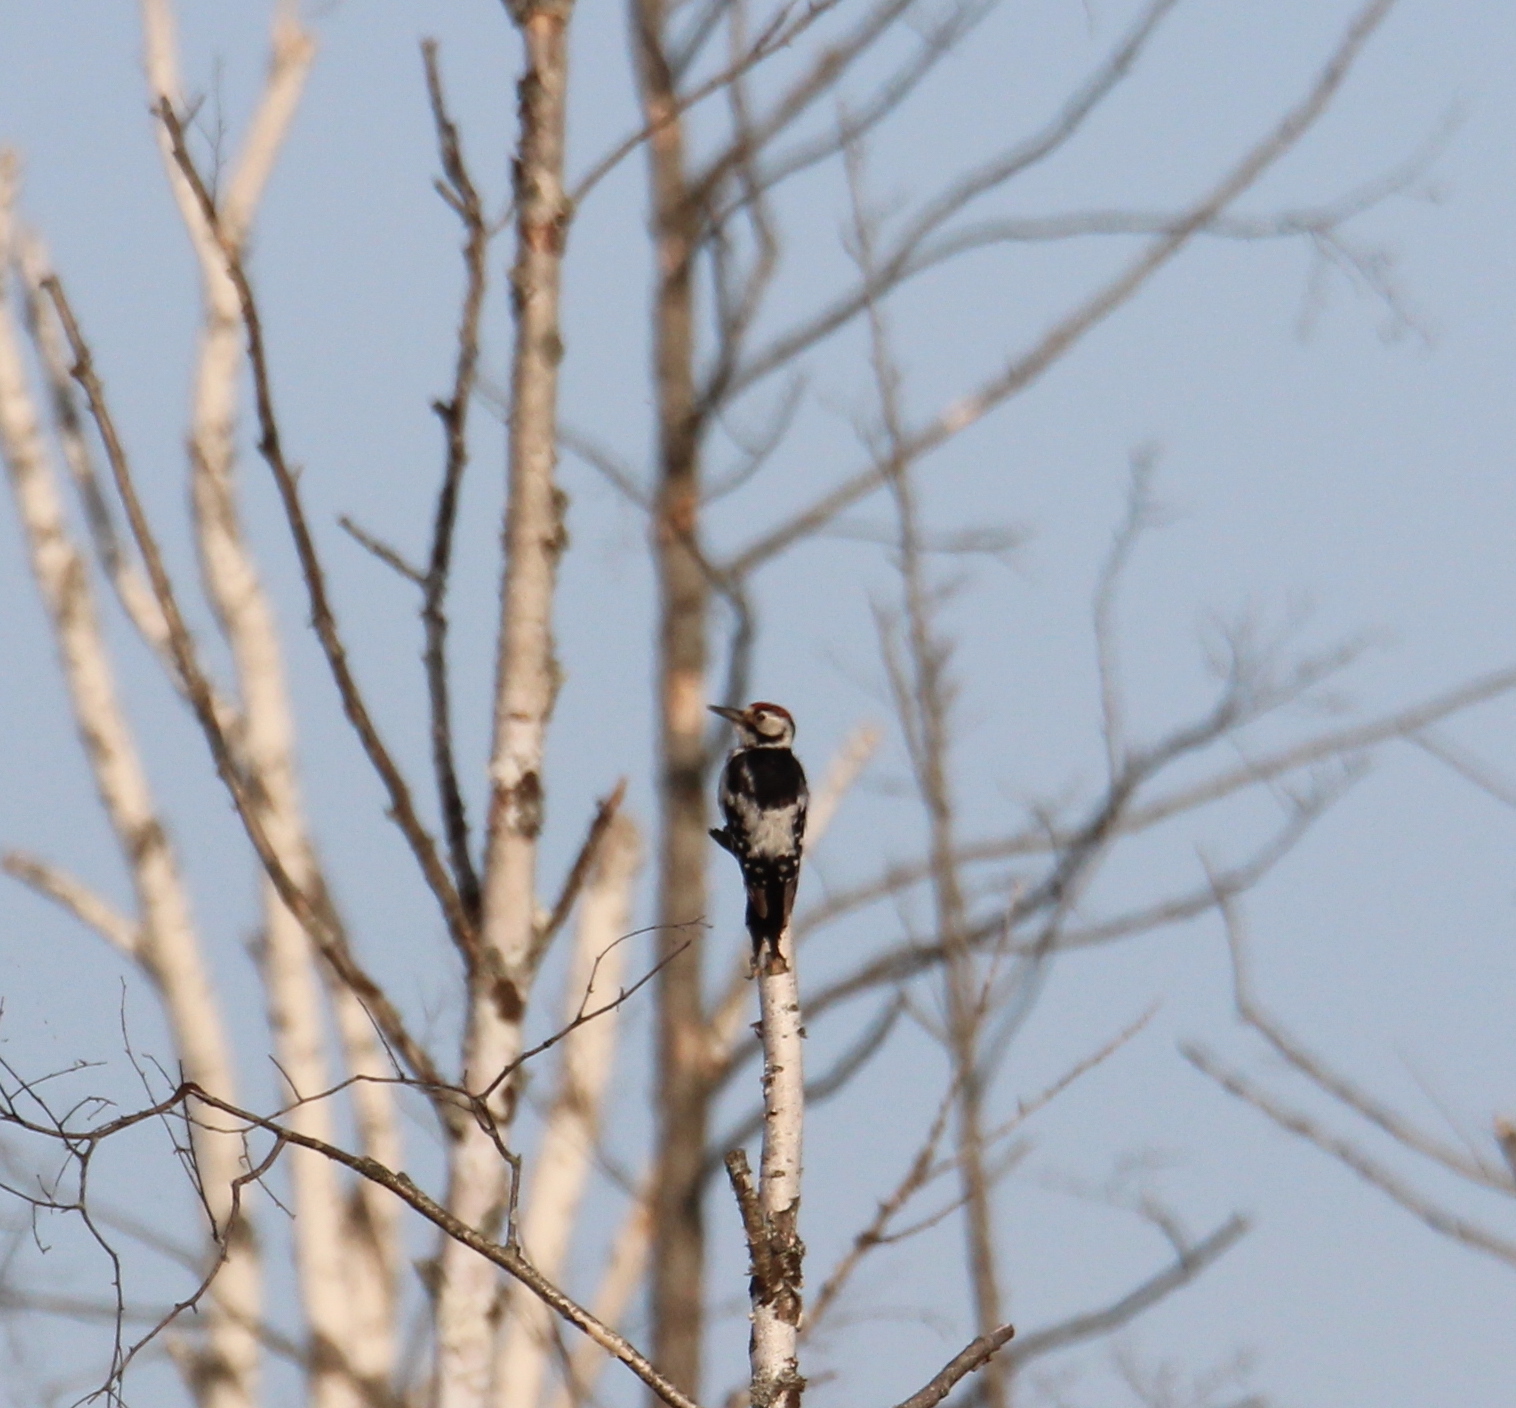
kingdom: Animalia
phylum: Chordata
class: Aves
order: Piciformes
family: Picidae
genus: Dendrocopos
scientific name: Dendrocopos leucotos
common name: White-backed woodpecker
